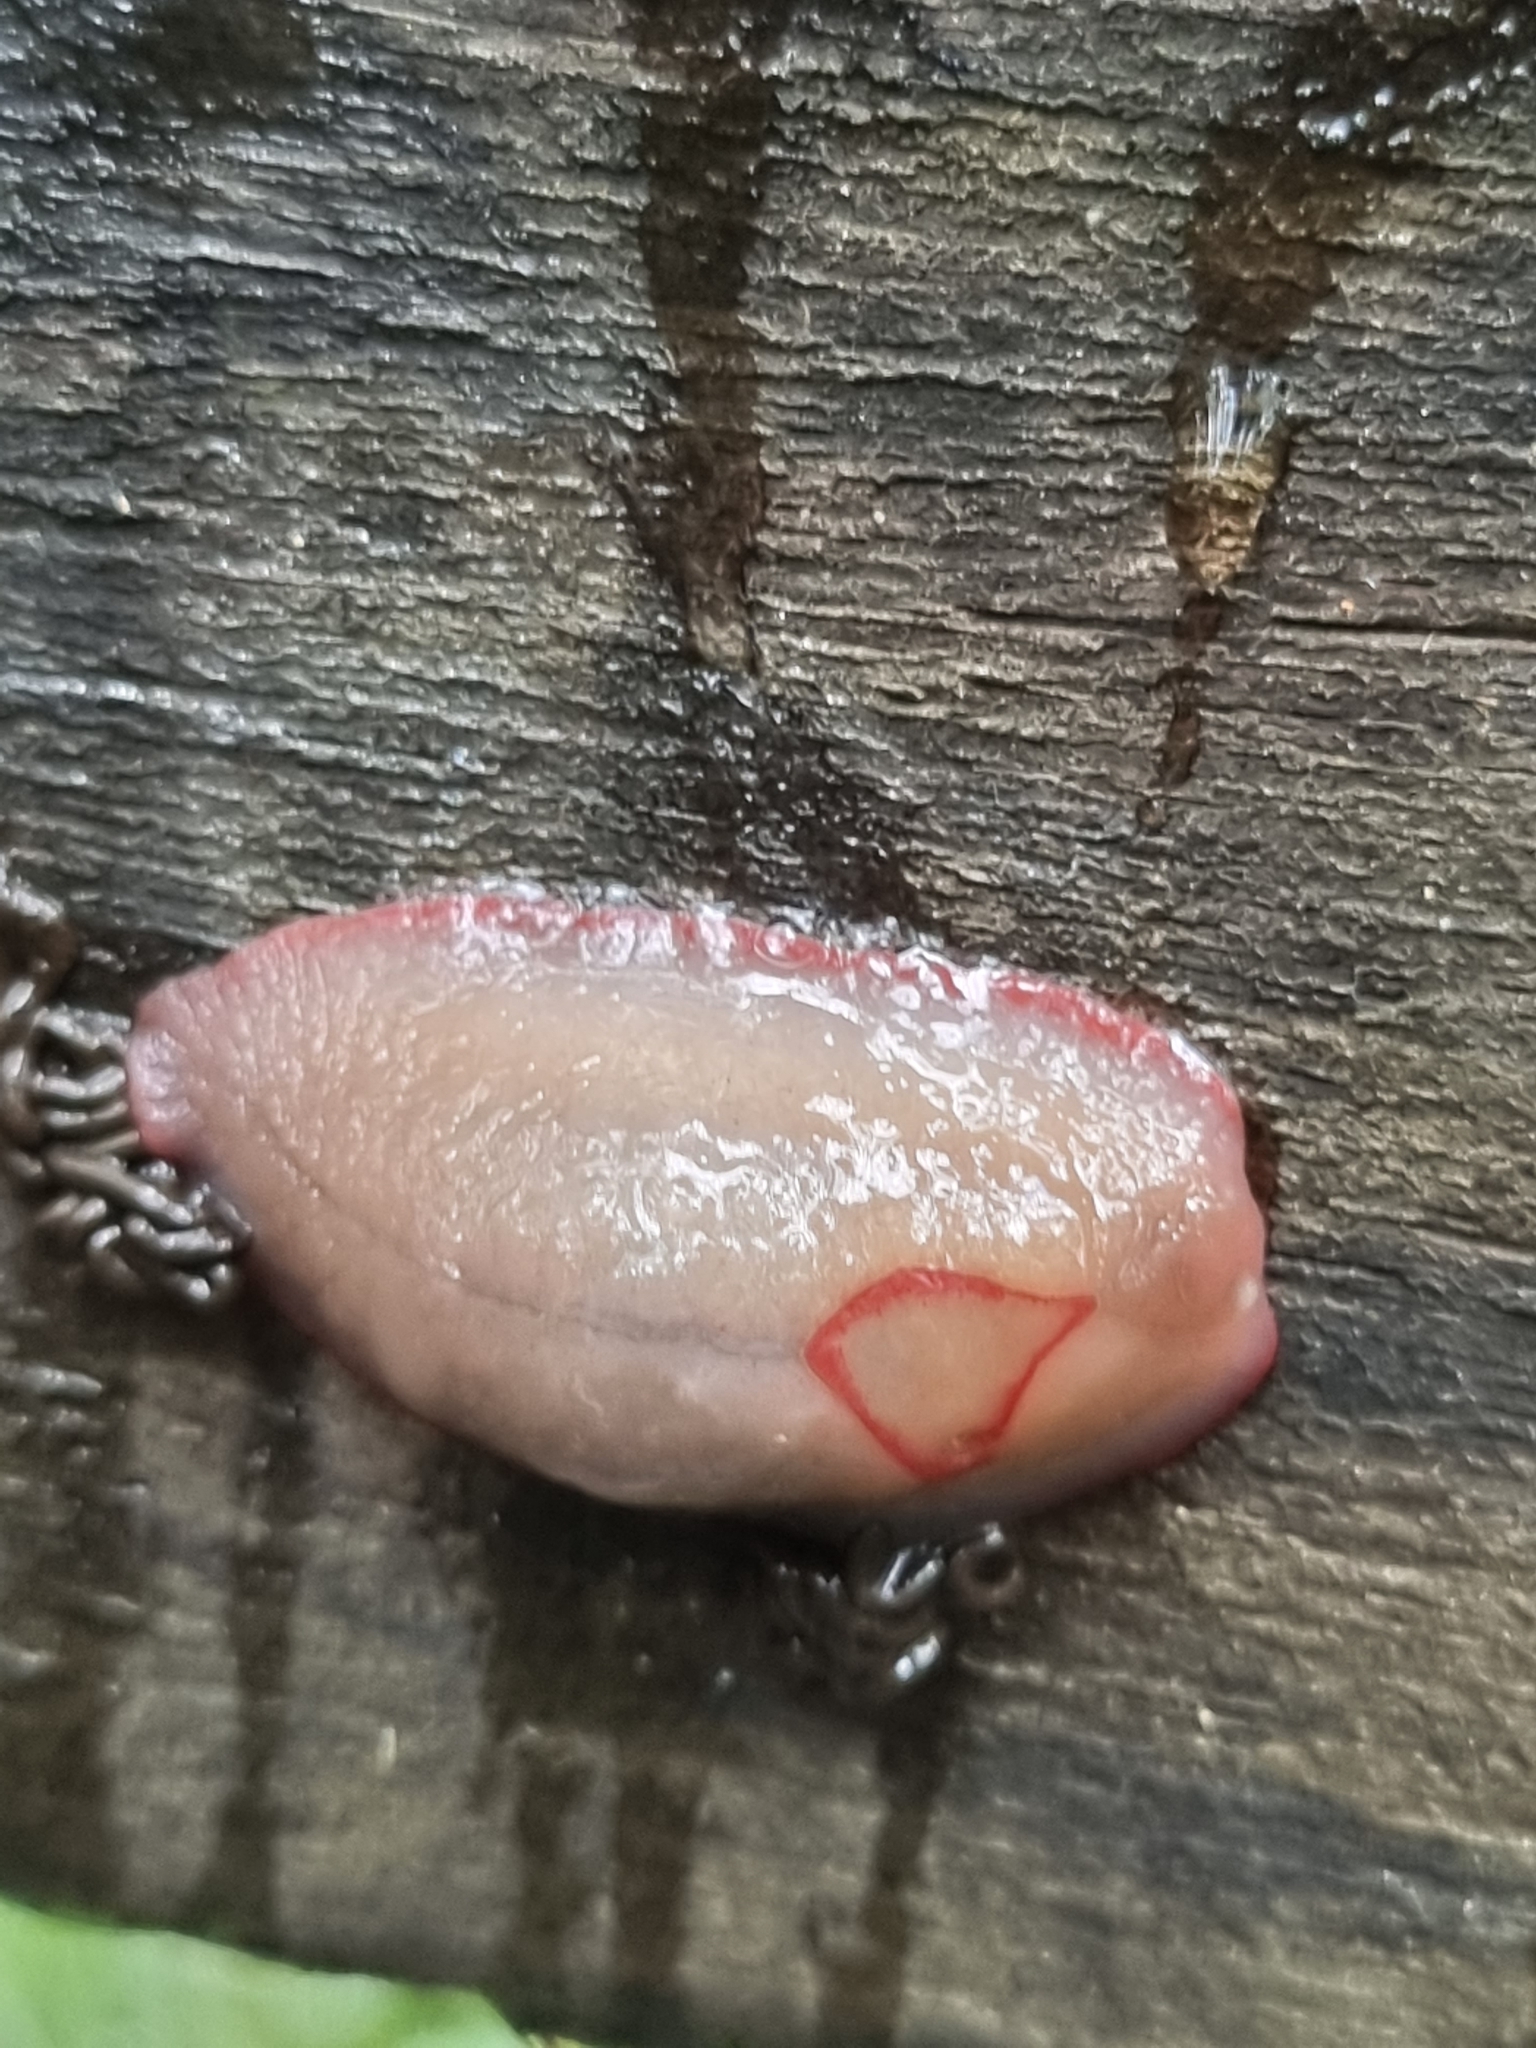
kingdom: Animalia
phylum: Mollusca
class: Gastropoda
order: Stylommatophora
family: Athoracophoridae
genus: Triboniophorus
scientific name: Triboniophorus graeffei
